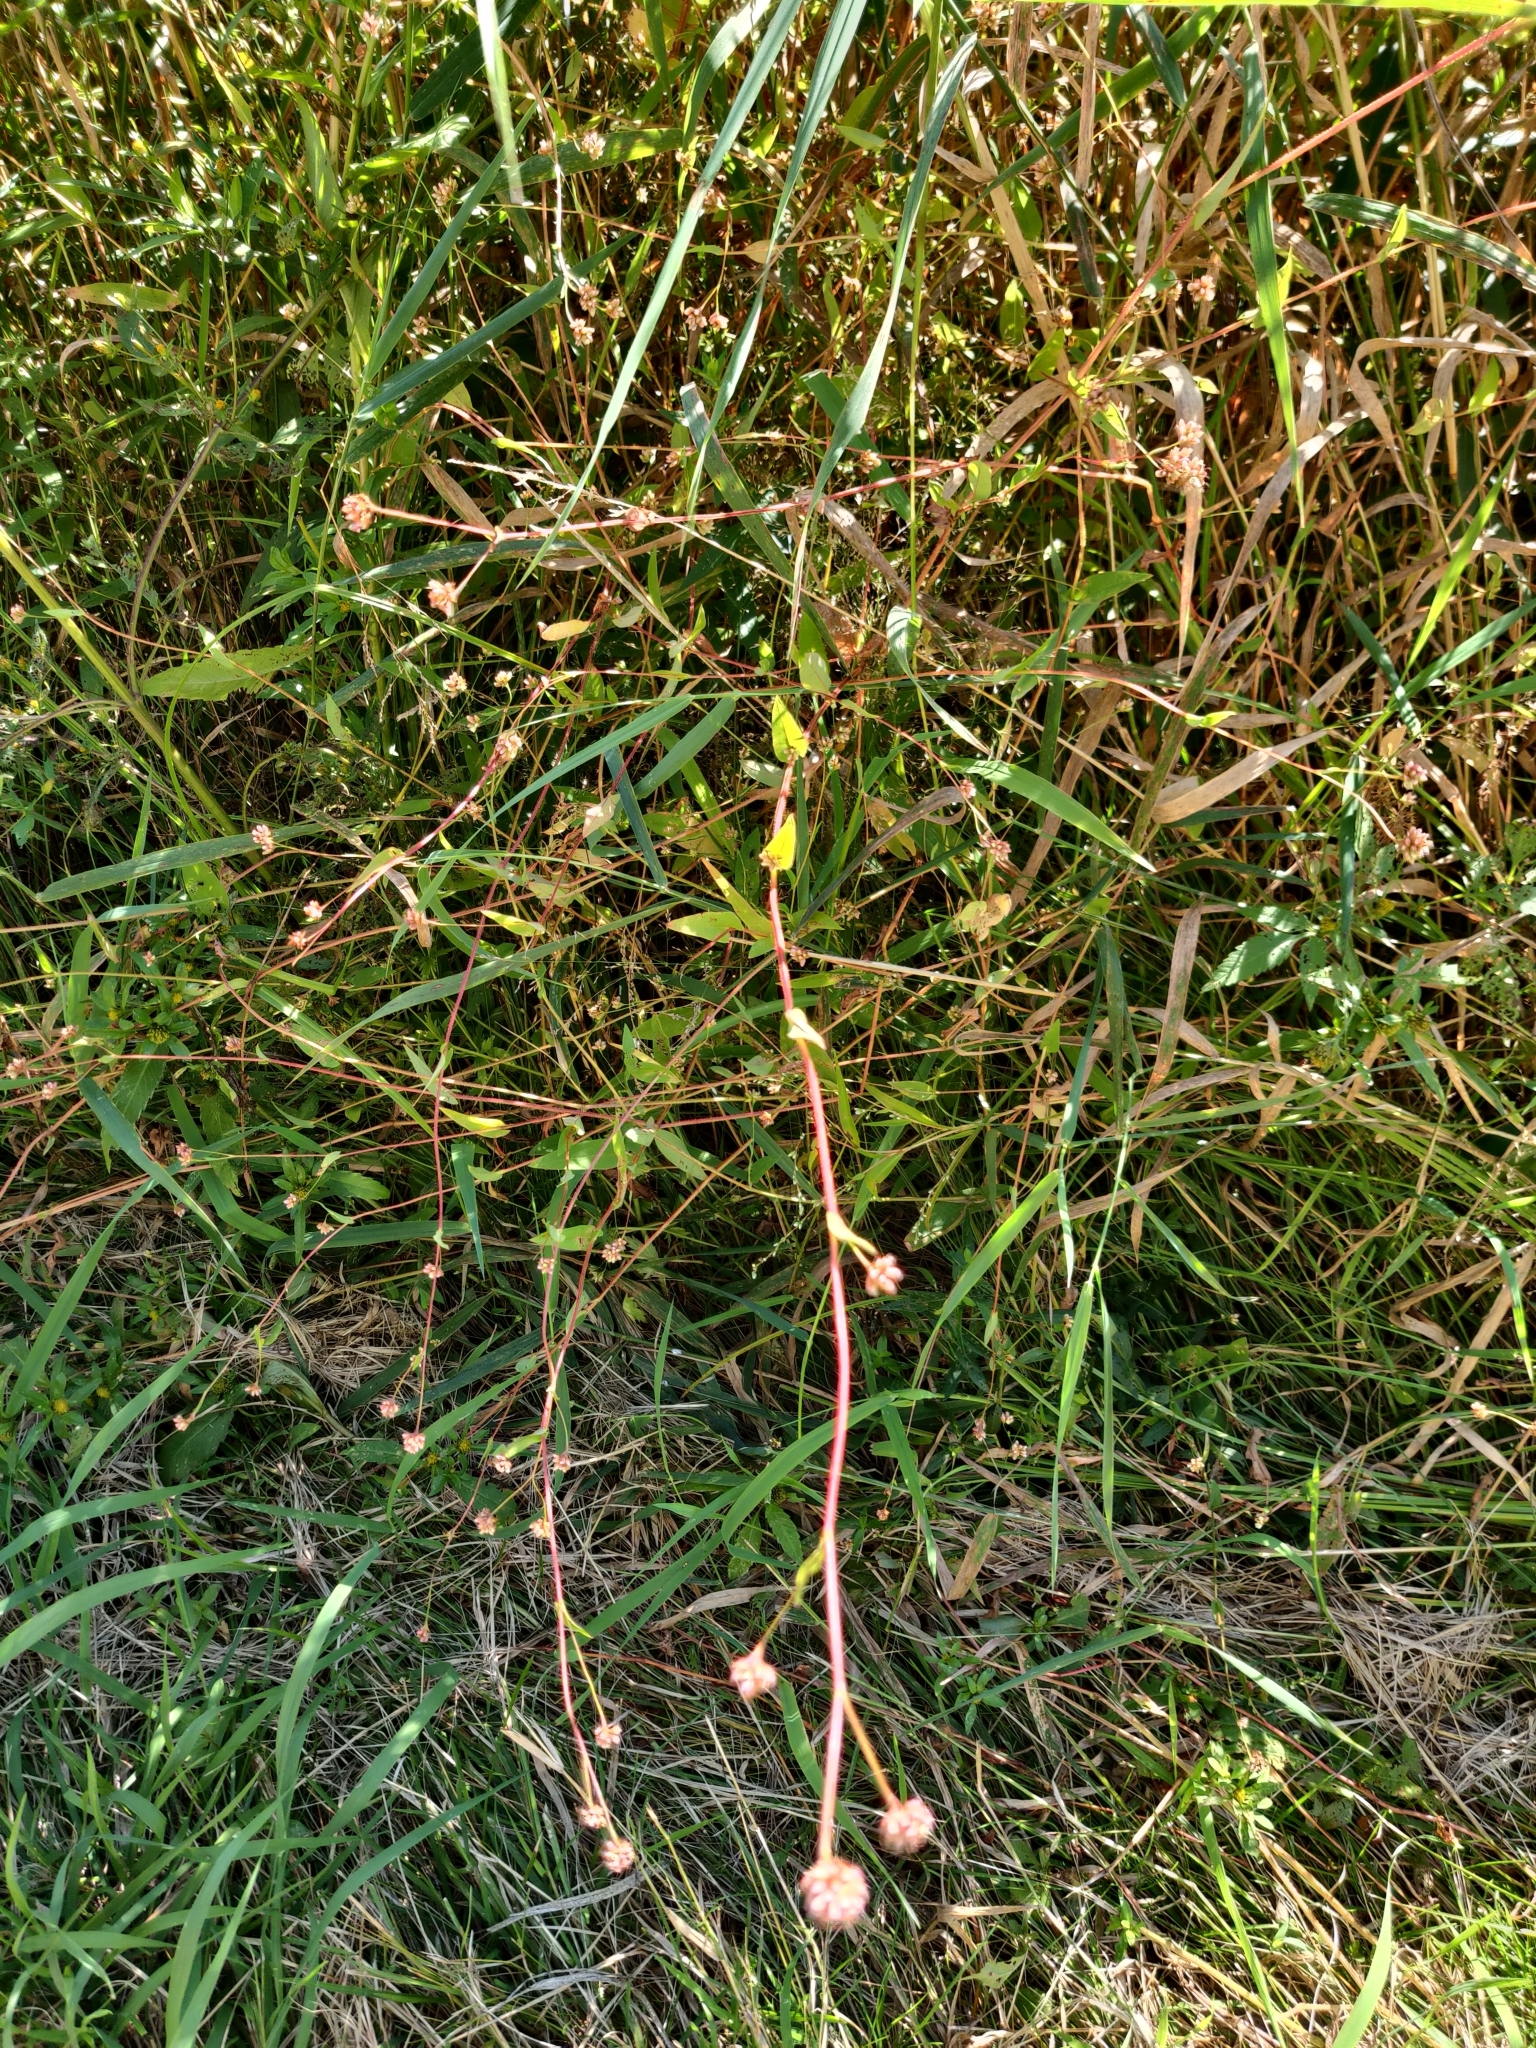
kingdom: Plantae
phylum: Tracheophyta
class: Magnoliopsida
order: Caryophyllales
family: Polygonaceae
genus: Persicaria
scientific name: Persicaria sagittata
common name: American tearthumb
